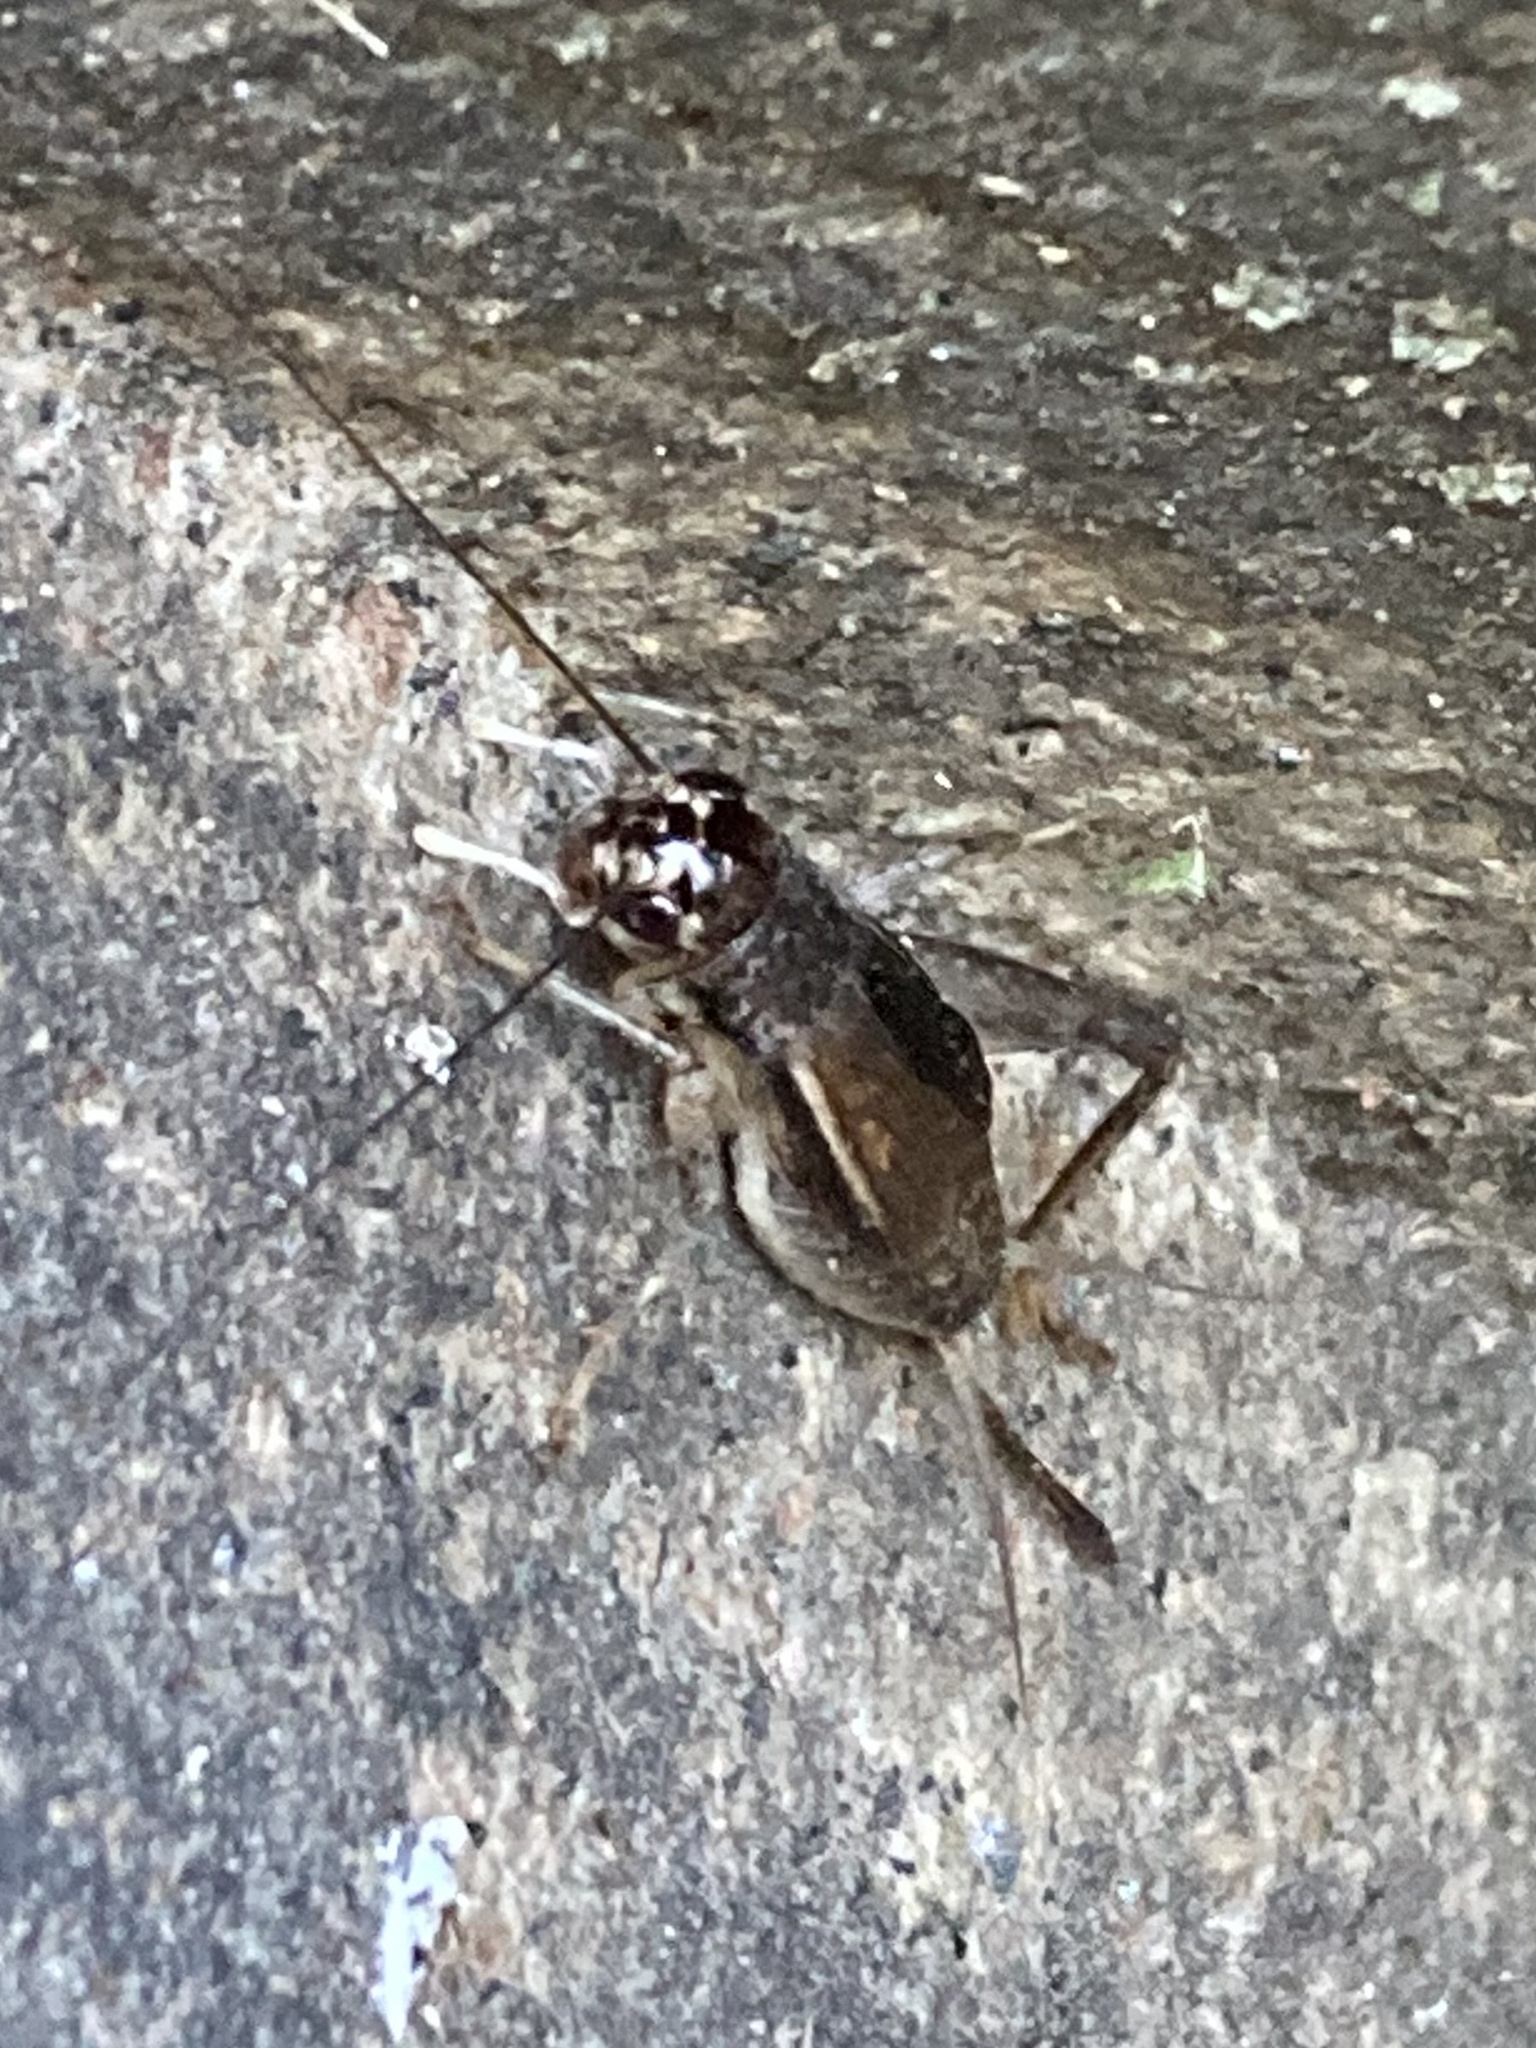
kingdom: Animalia
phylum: Arthropoda
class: Insecta
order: Orthoptera
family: Gryllidae
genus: Velarifictorus
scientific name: Velarifictorus micado
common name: Japanese burrowing cricket
